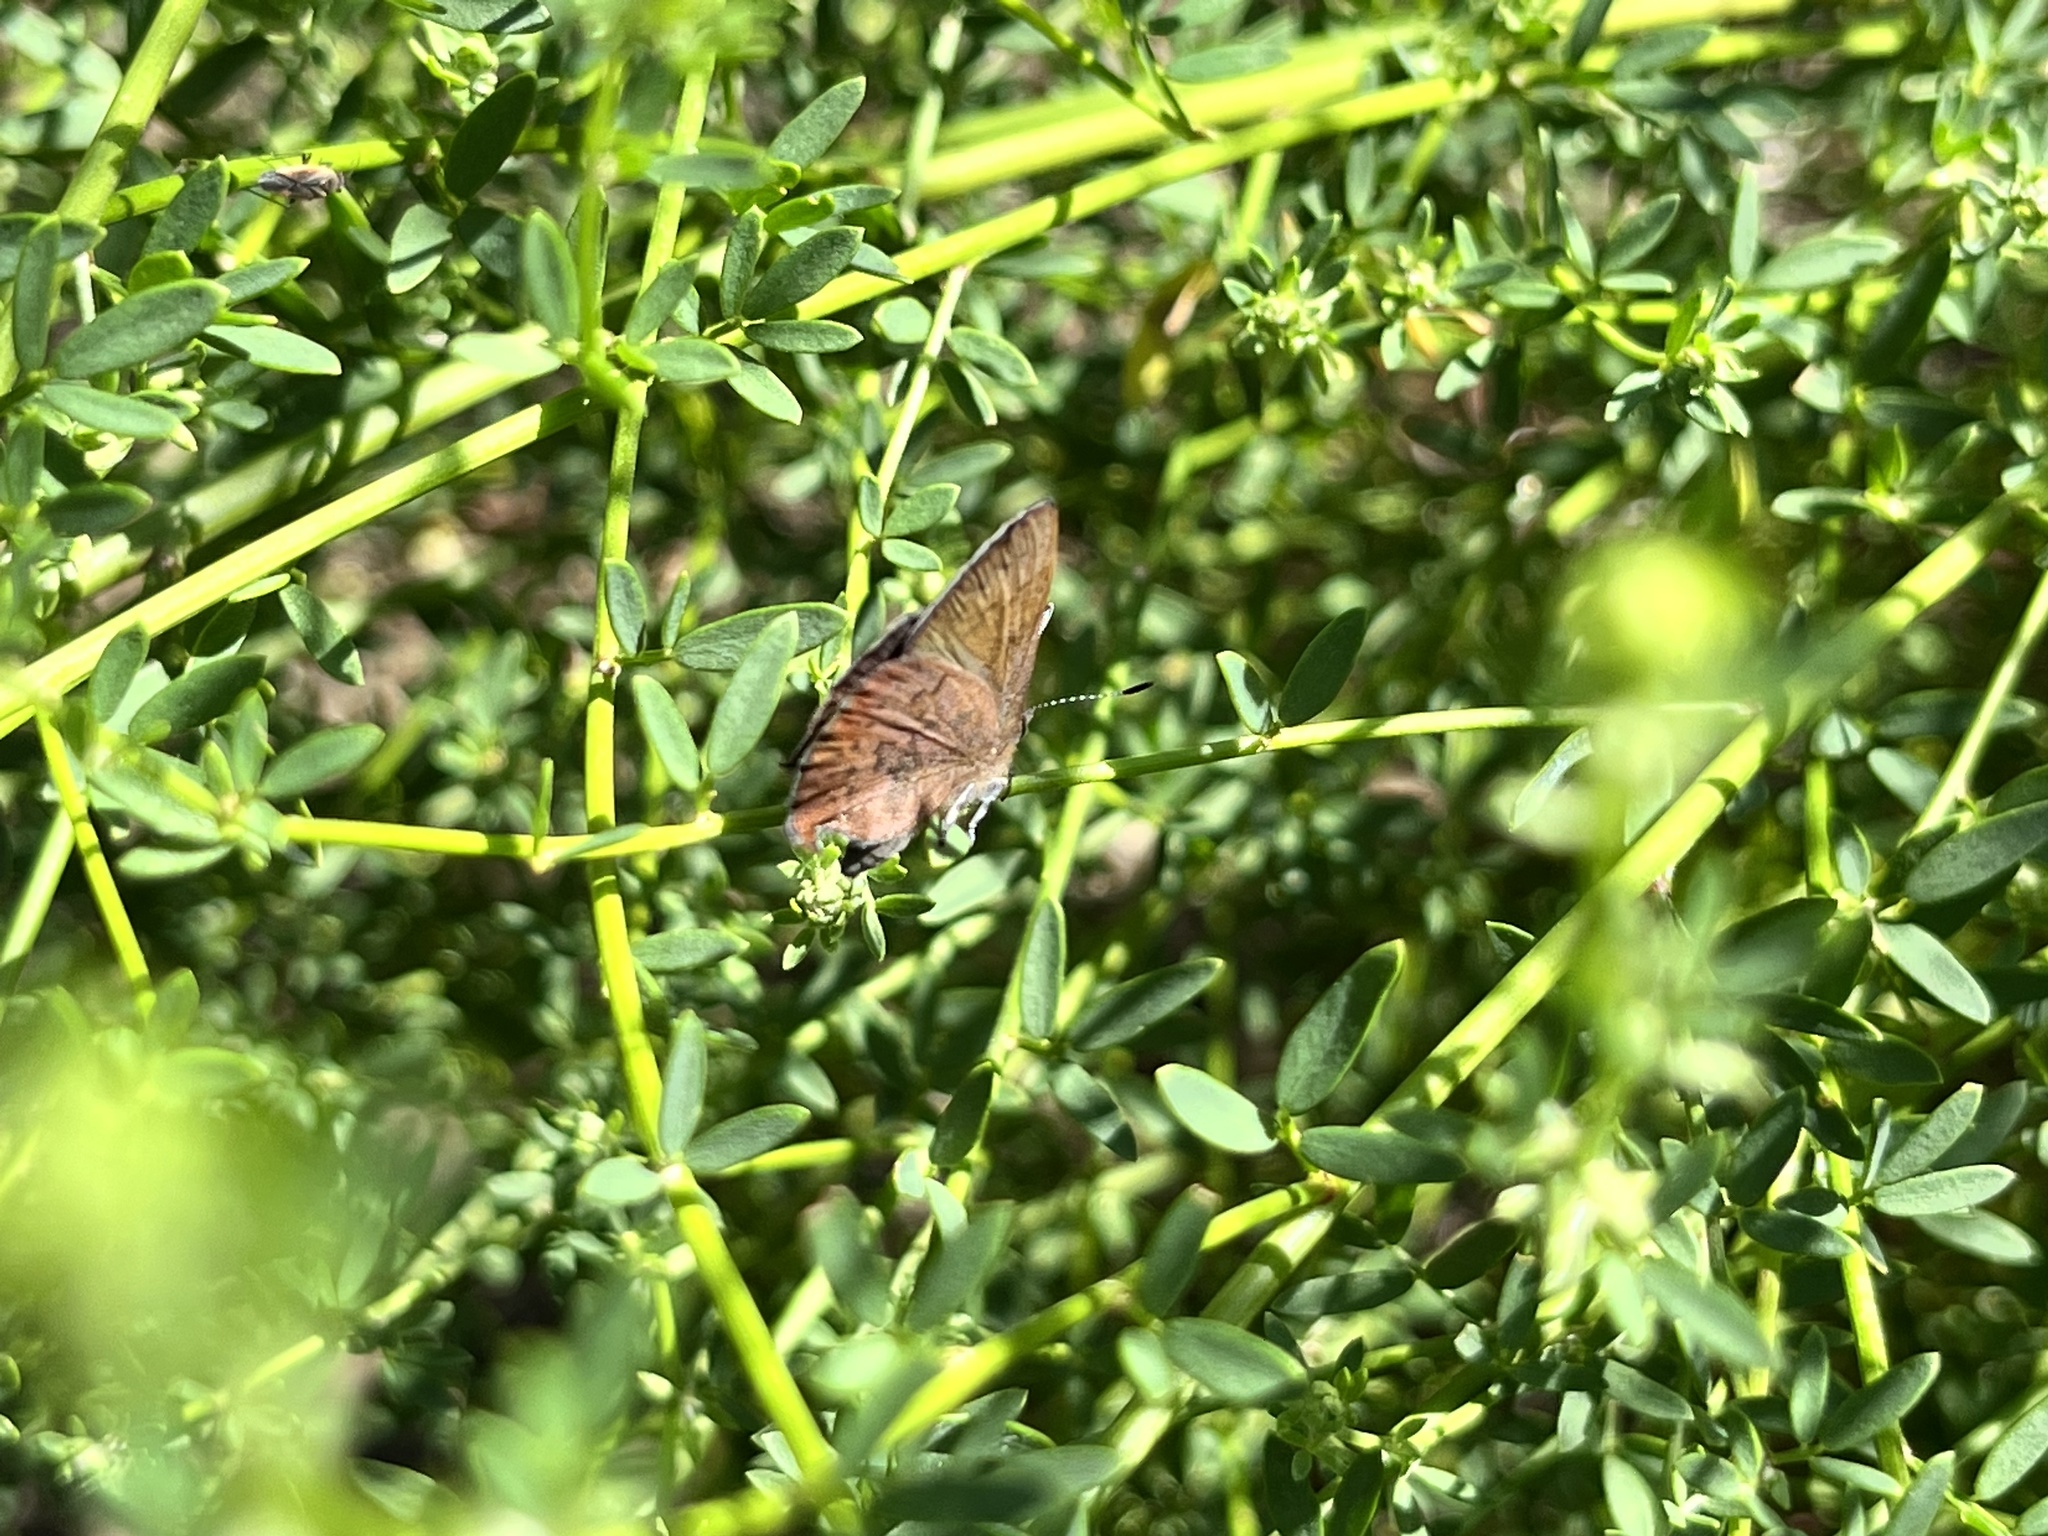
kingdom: Animalia
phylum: Arthropoda
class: Insecta
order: Lepidoptera
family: Lycaenidae
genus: Incisalia
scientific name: Incisalia irioides
